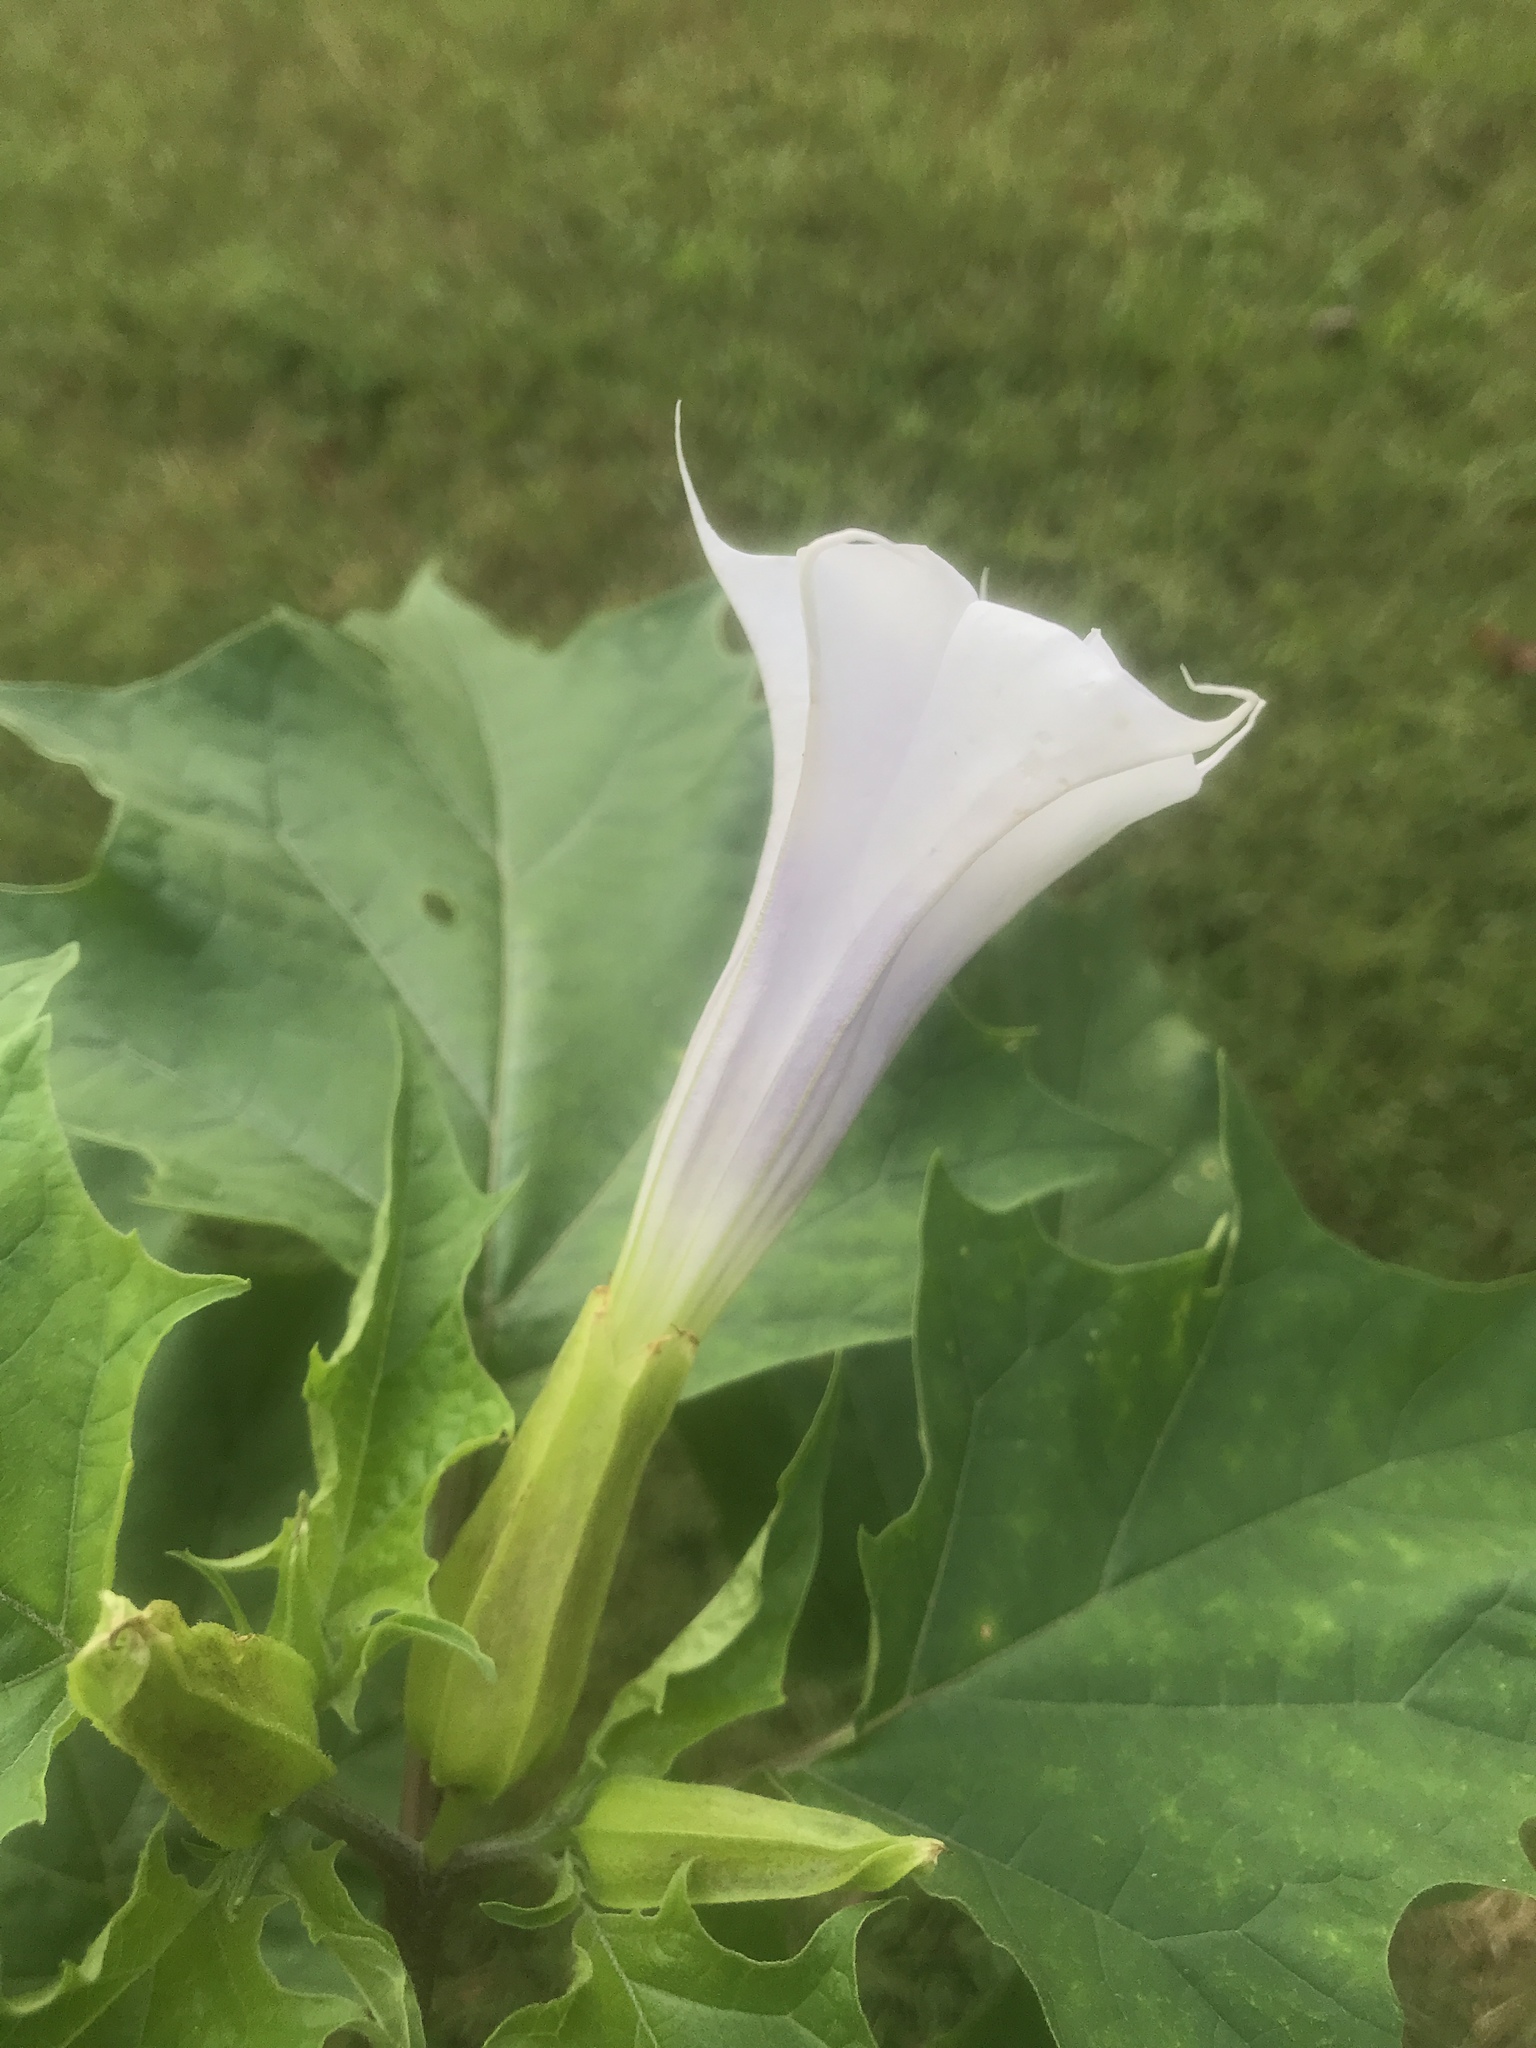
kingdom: Plantae
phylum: Tracheophyta
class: Magnoliopsida
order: Solanales
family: Solanaceae
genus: Datura
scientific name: Datura stramonium
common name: Thorn-apple
